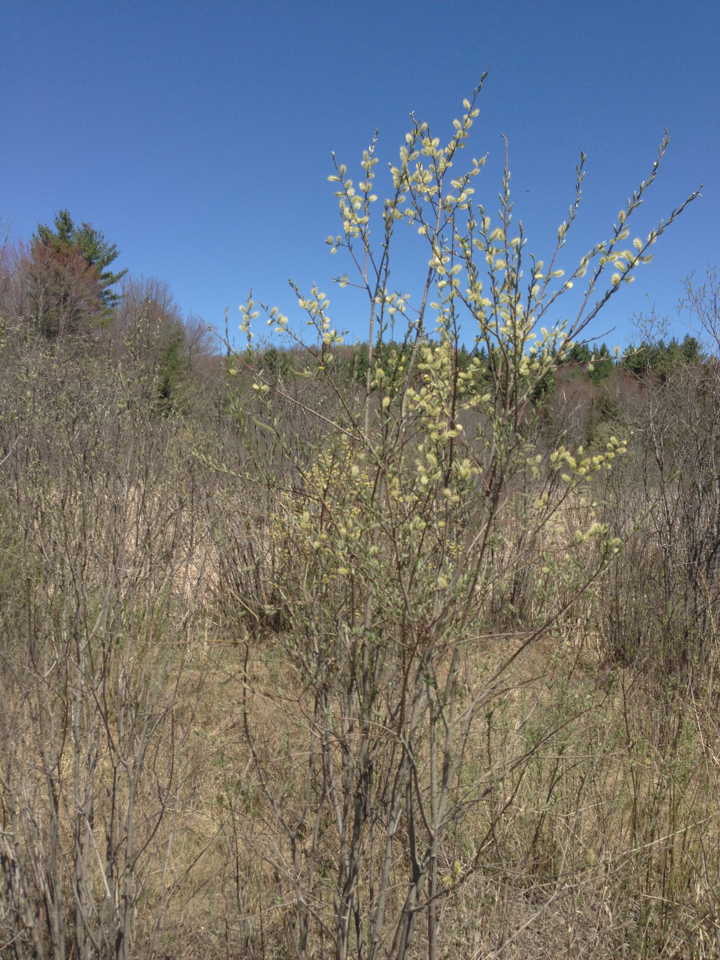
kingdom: Plantae
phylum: Tracheophyta
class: Magnoliopsida
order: Malpighiales
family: Salicaceae
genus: Salix
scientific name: Salix
